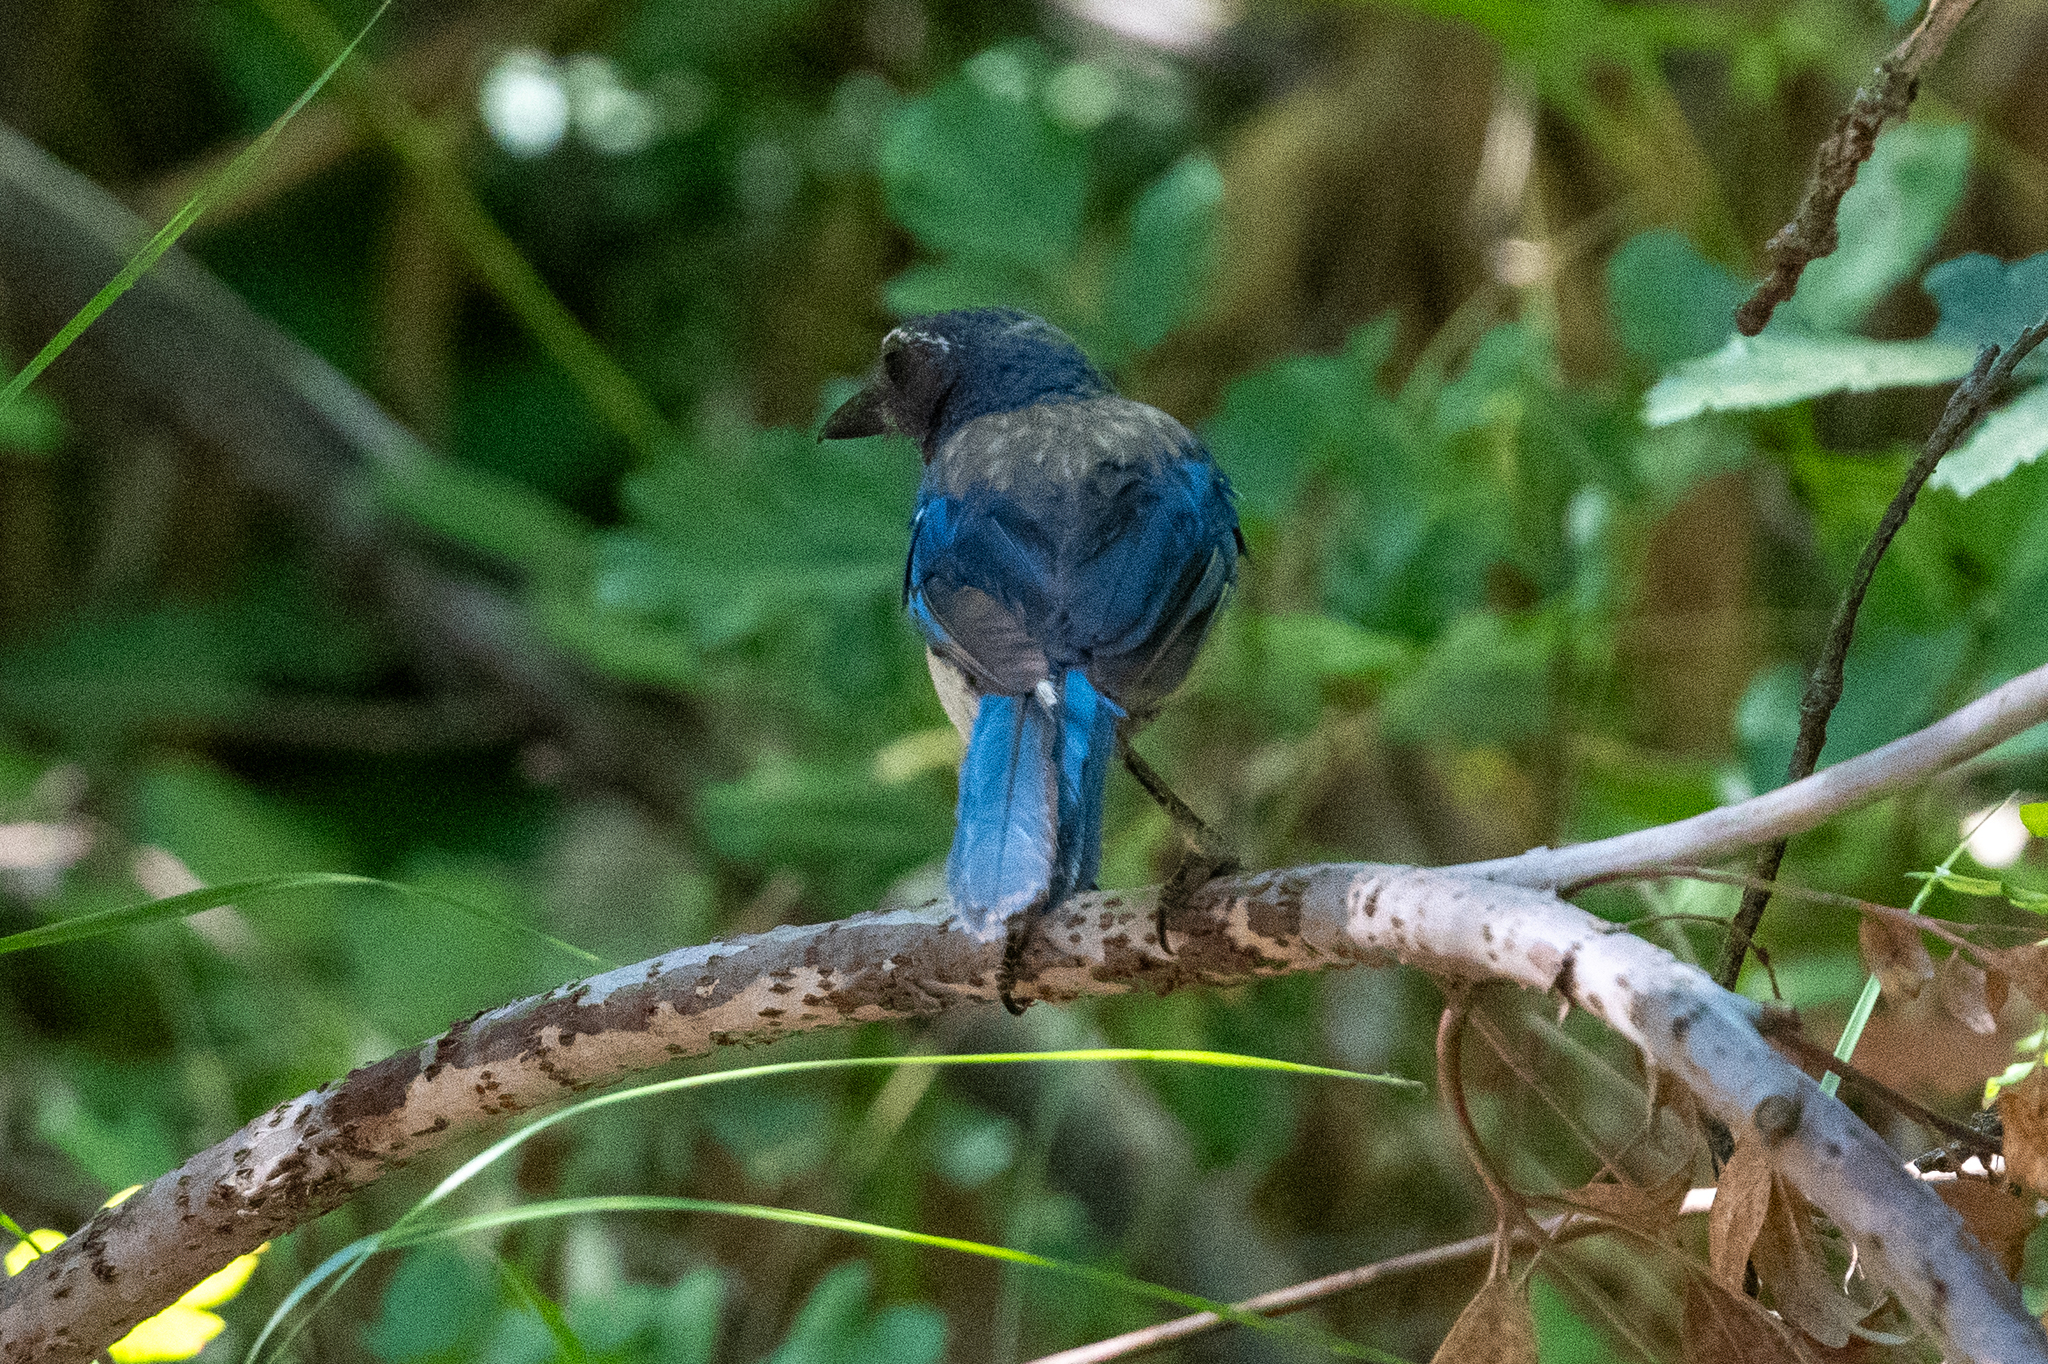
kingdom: Animalia
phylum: Chordata
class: Aves
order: Passeriformes
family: Corvidae
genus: Aphelocoma
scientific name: Aphelocoma californica
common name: California scrub-jay
